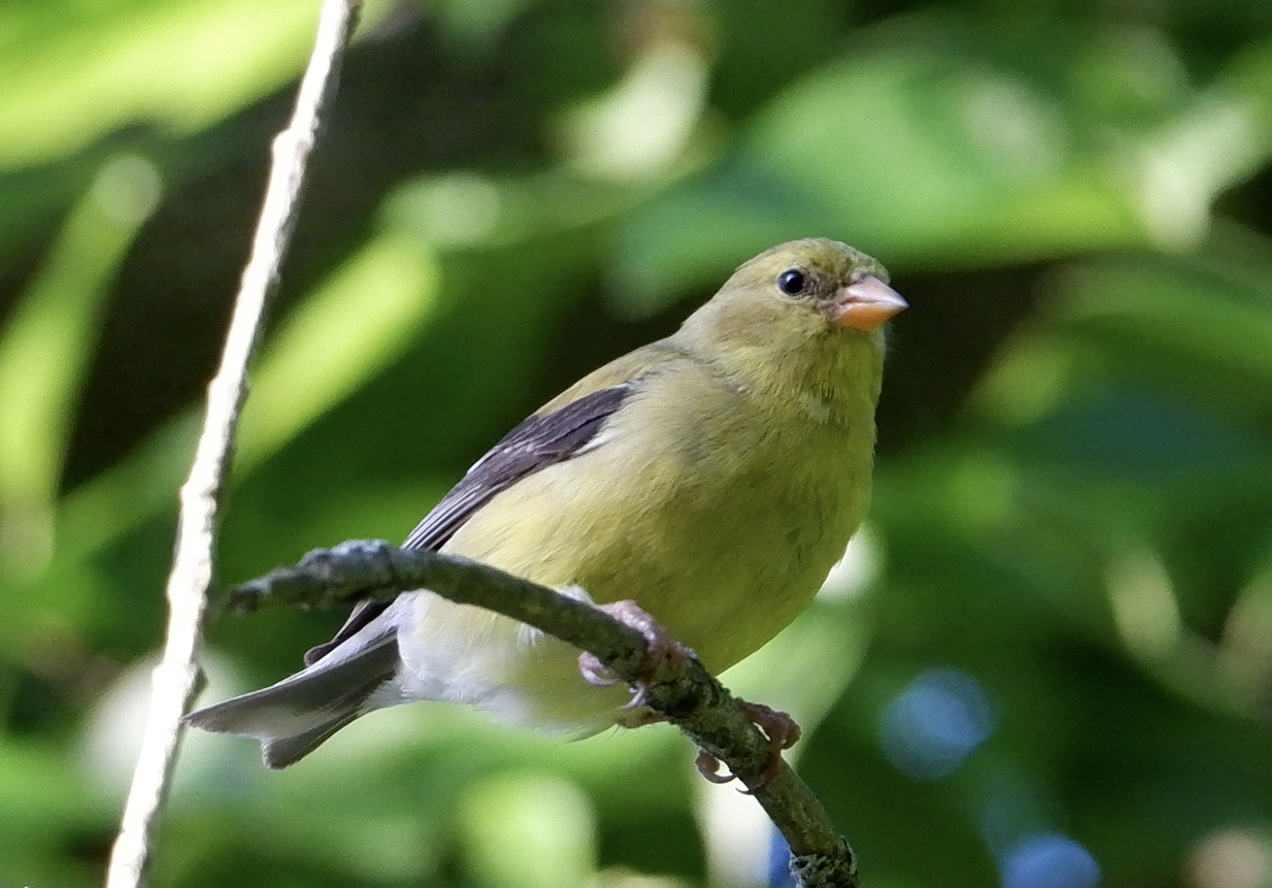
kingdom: Animalia
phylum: Chordata
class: Aves
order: Passeriformes
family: Fringillidae
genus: Spinus
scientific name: Spinus tristis
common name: American goldfinch
